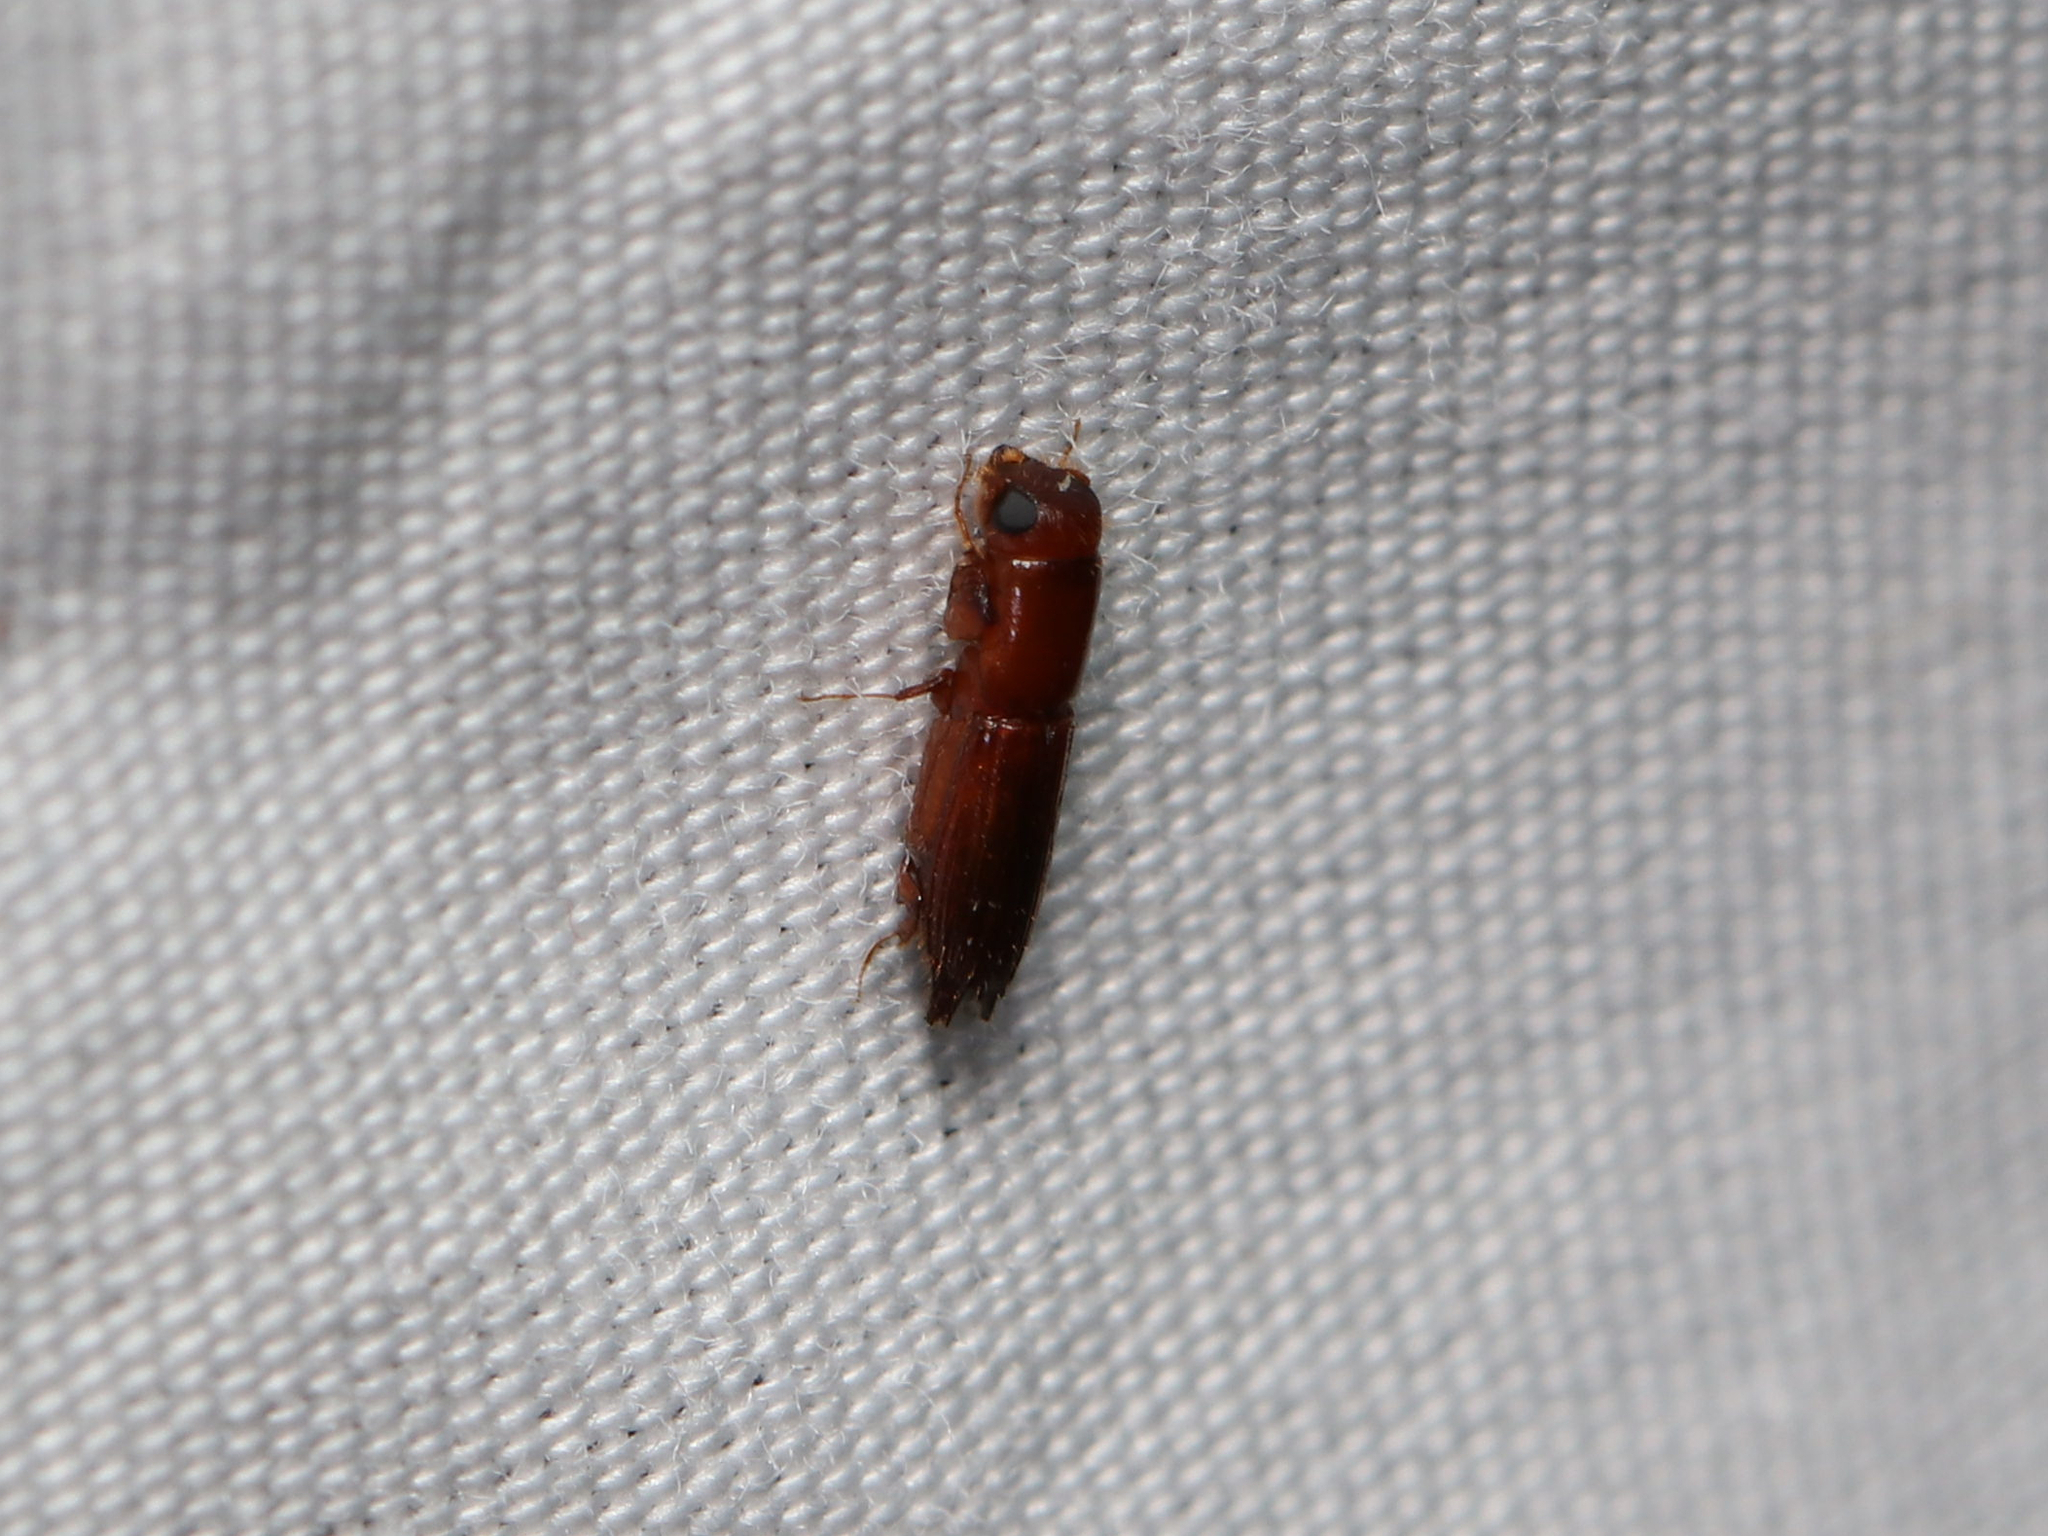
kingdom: Animalia
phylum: Arthropoda
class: Insecta
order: Coleoptera
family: Curculionidae
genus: Euplatypus
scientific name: Euplatypus compositus
